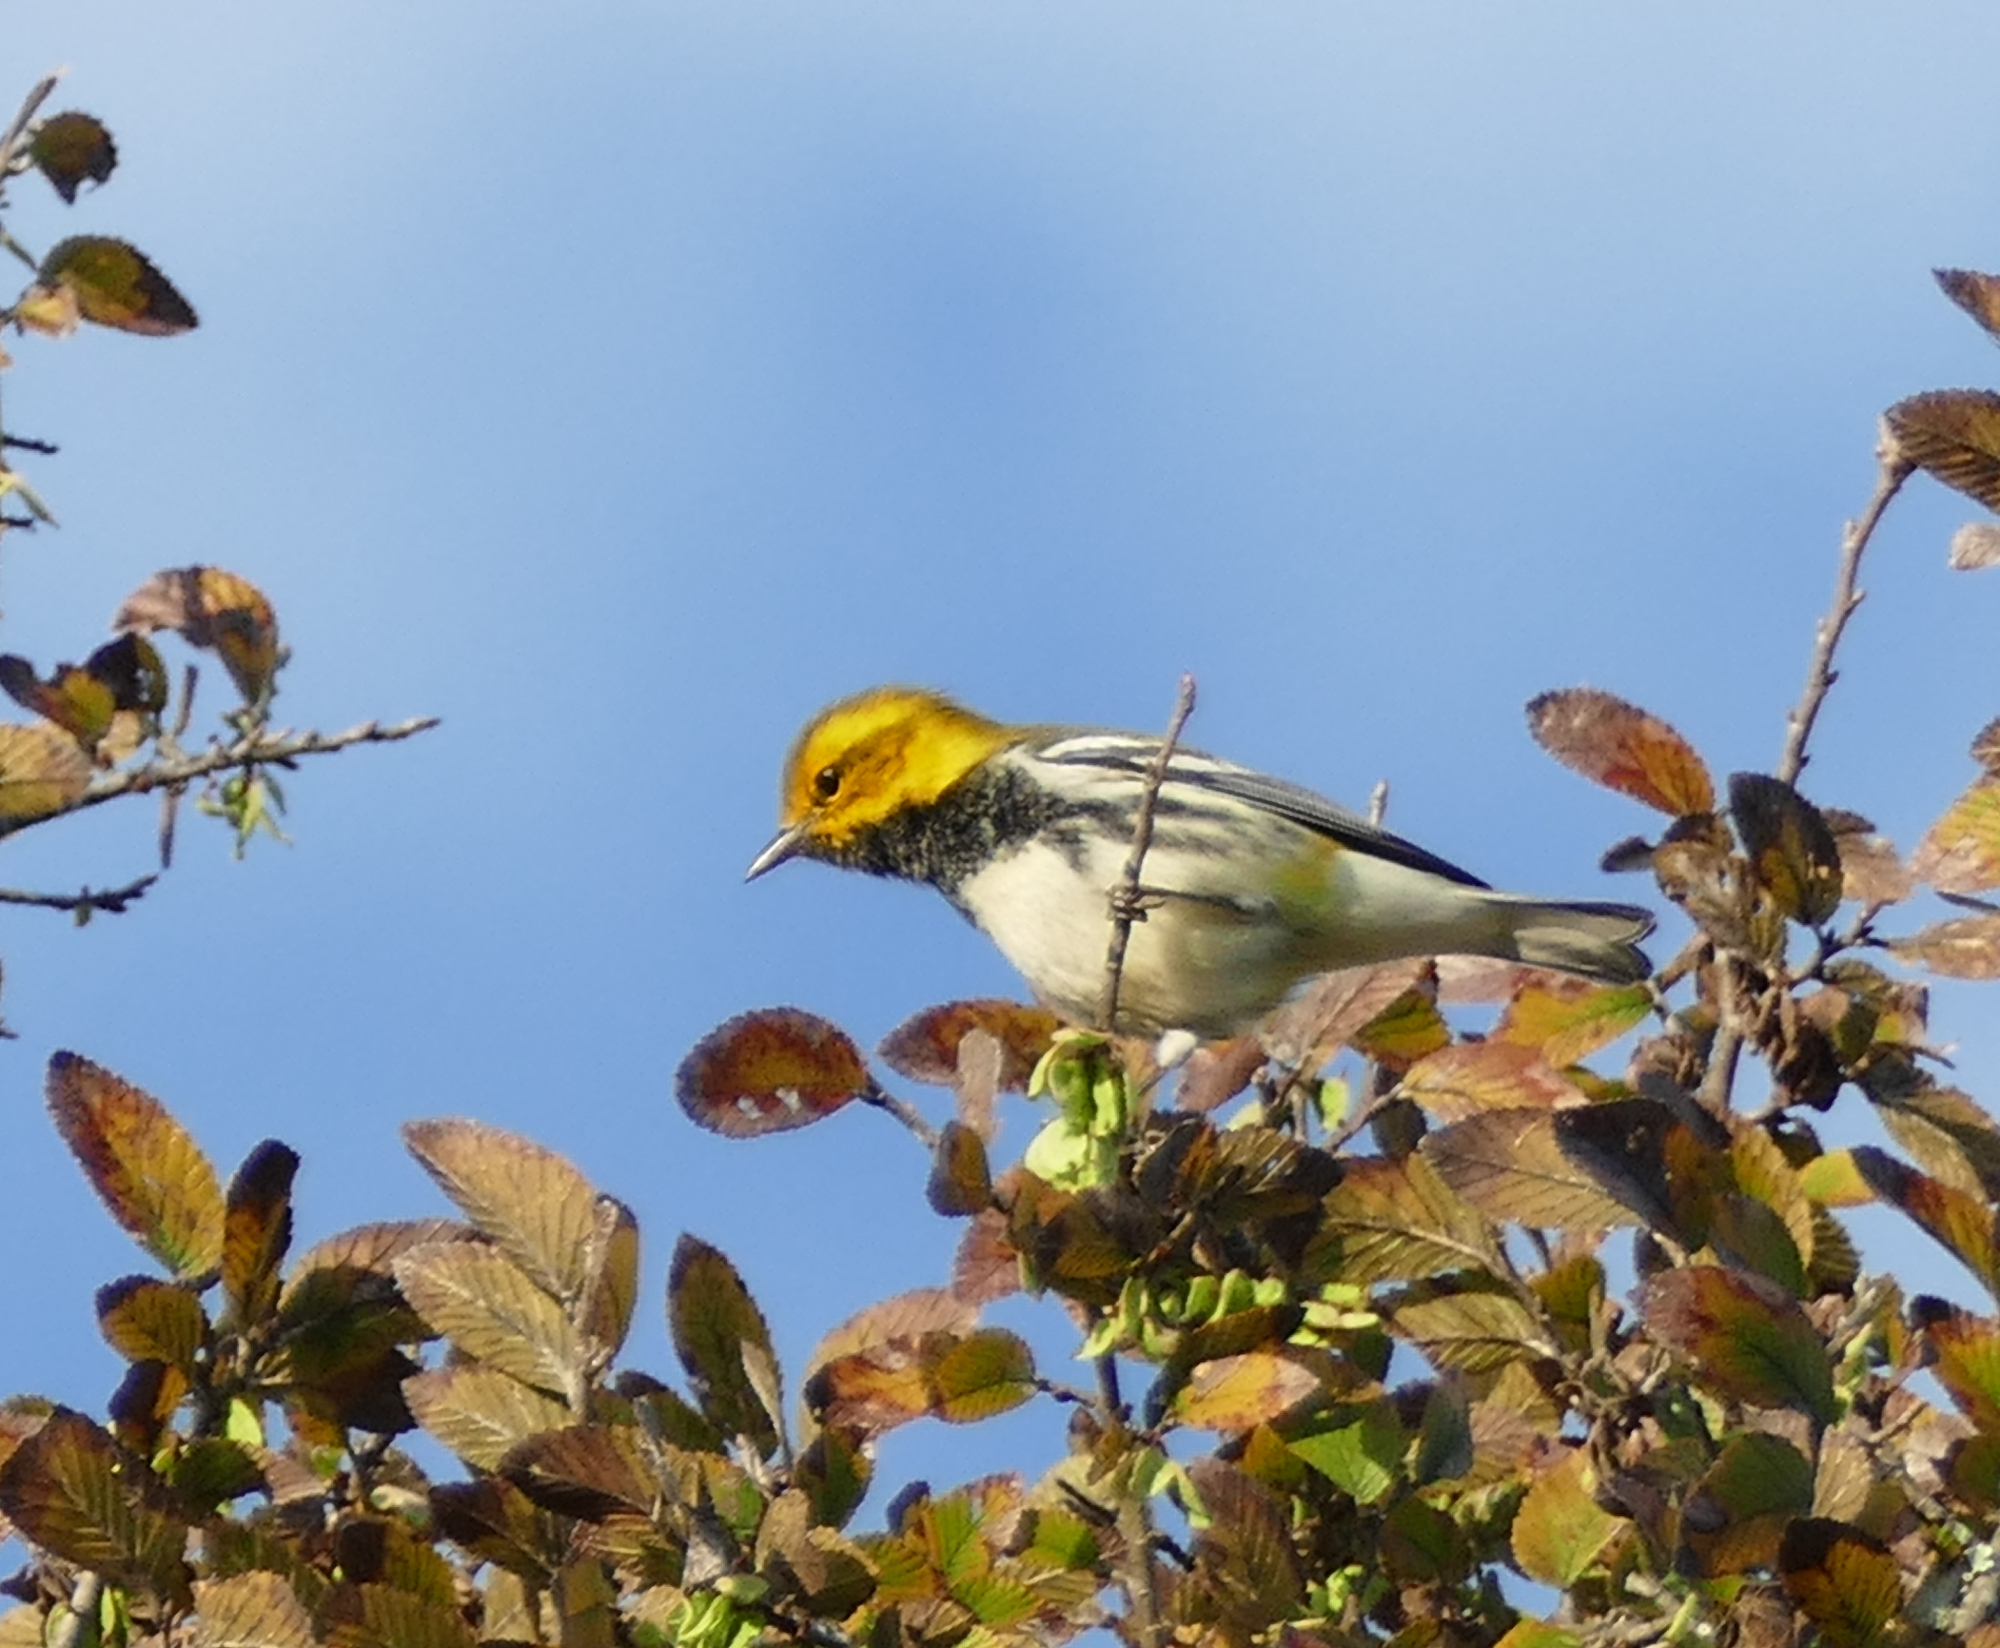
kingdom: Animalia
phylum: Chordata
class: Aves
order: Passeriformes
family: Parulidae
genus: Setophaga
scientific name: Setophaga virens
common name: Black-throated green warbler
